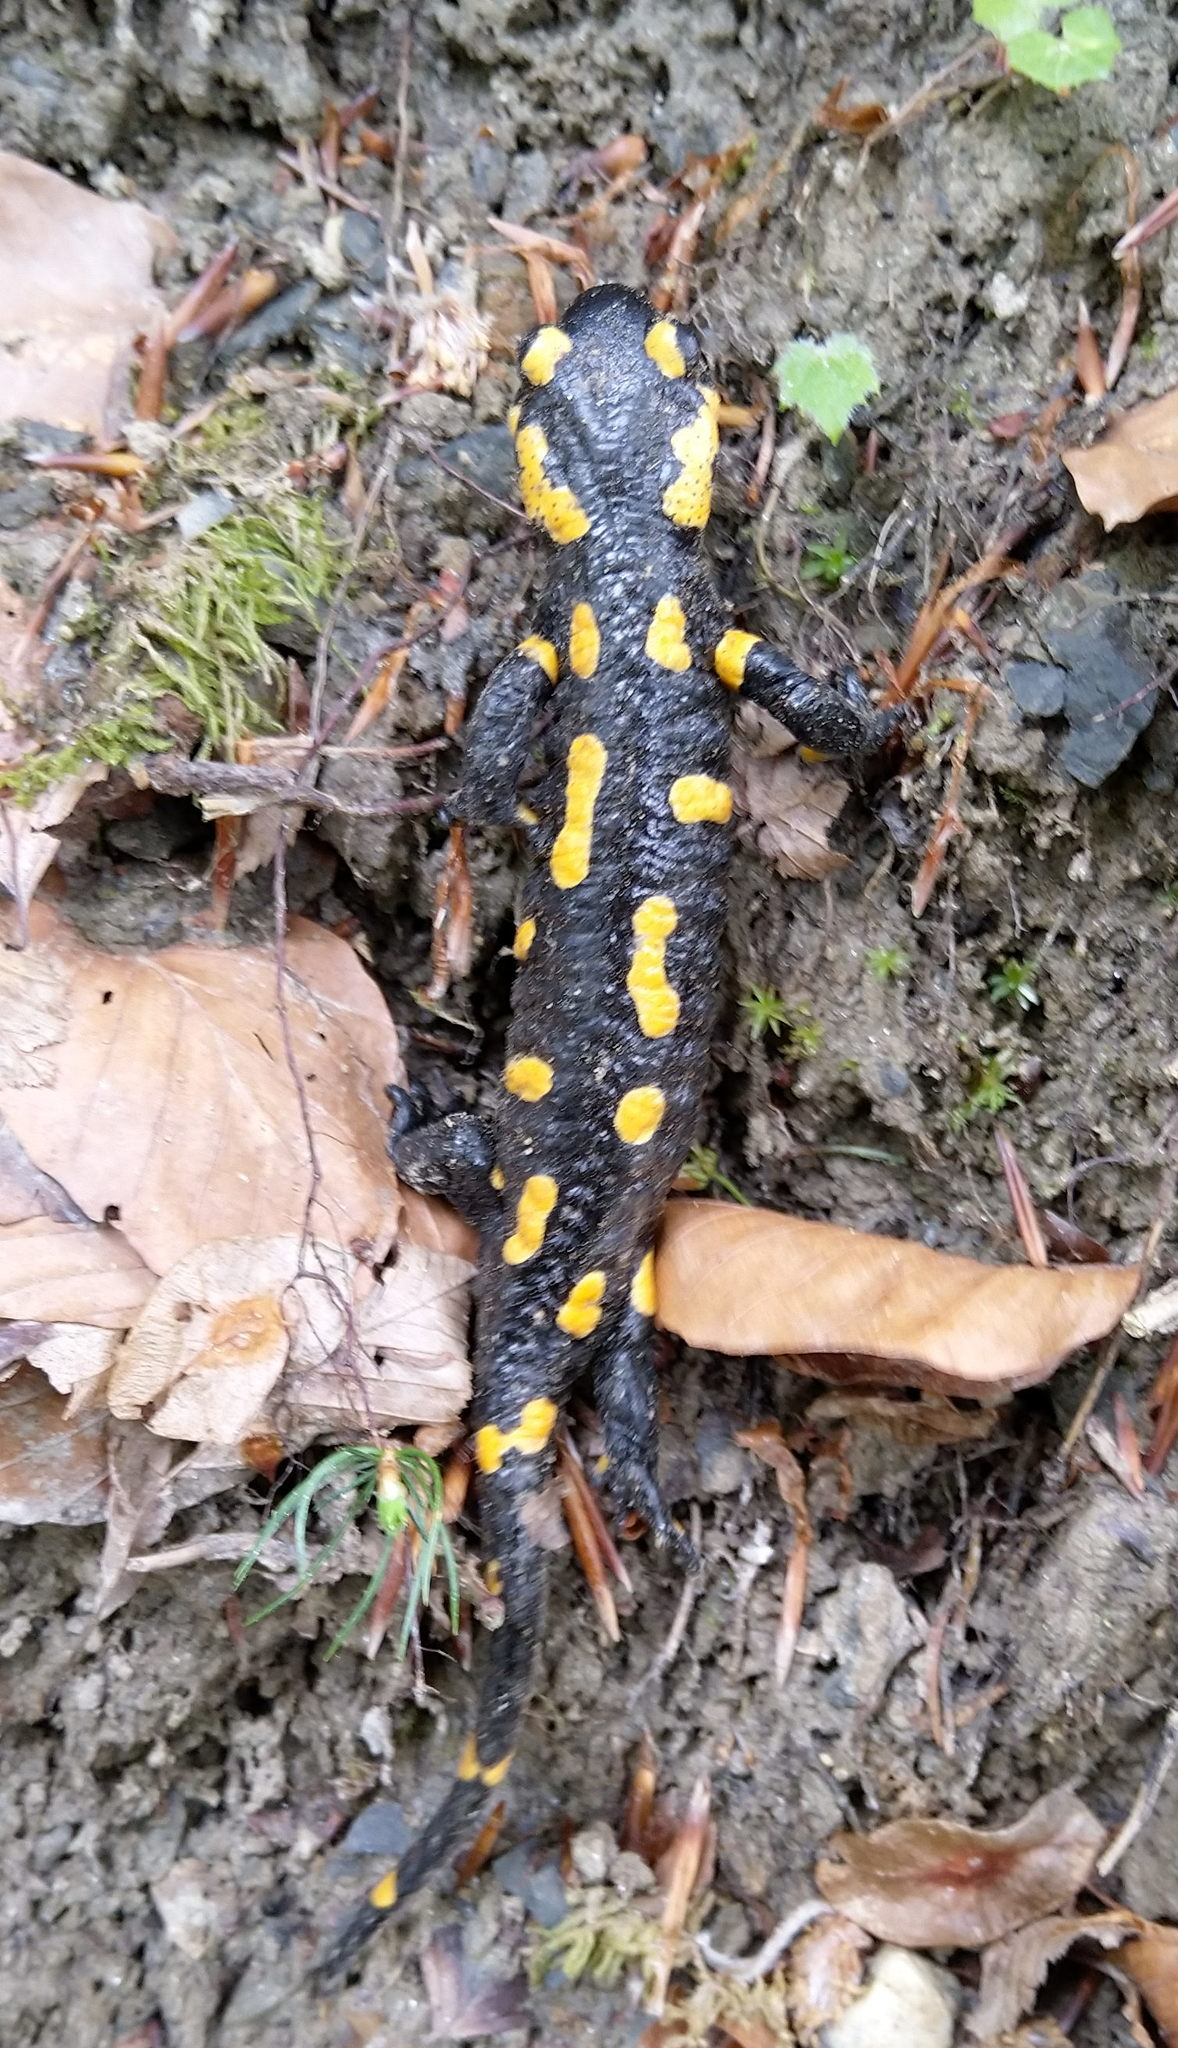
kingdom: Animalia
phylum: Chordata
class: Amphibia
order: Caudata
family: Salamandridae
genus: Salamandra
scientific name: Salamandra salamandra
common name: Fire salamander
